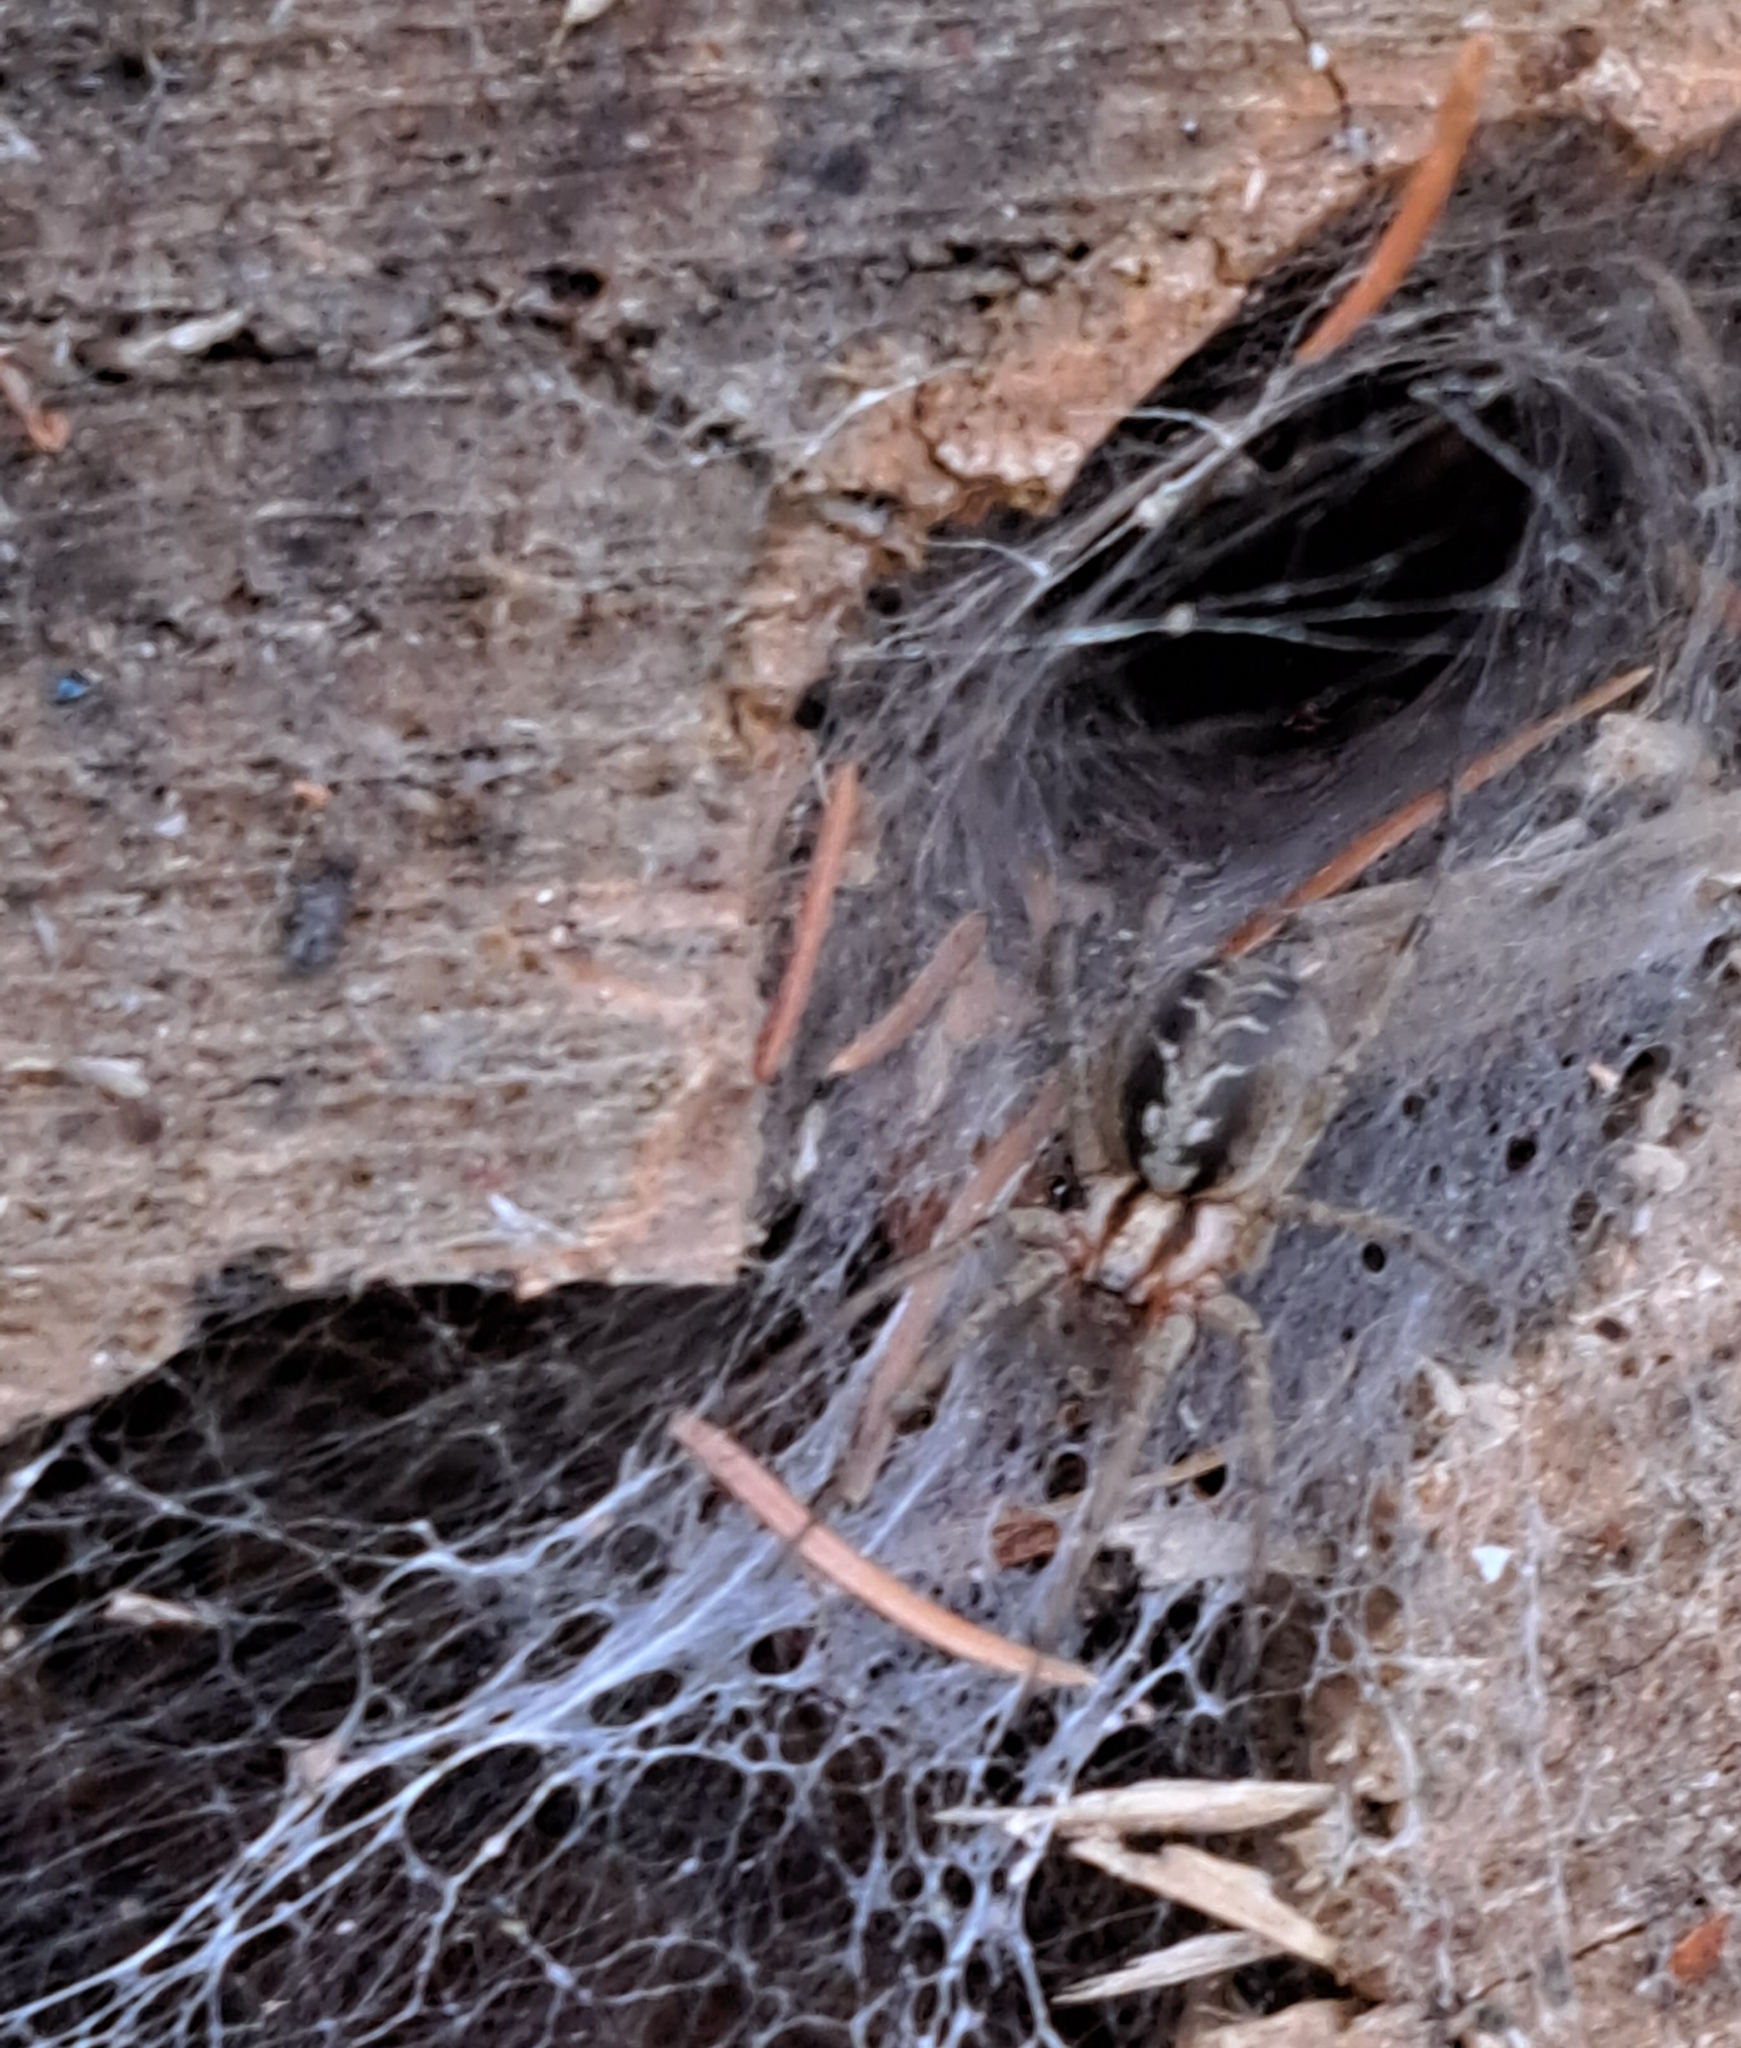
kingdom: Animalia
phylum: Arthropoda
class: Arachnida
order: Araneae
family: Agelenidae
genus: Agelena
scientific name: Agelena labyrinthica
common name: Labyrinth spider
